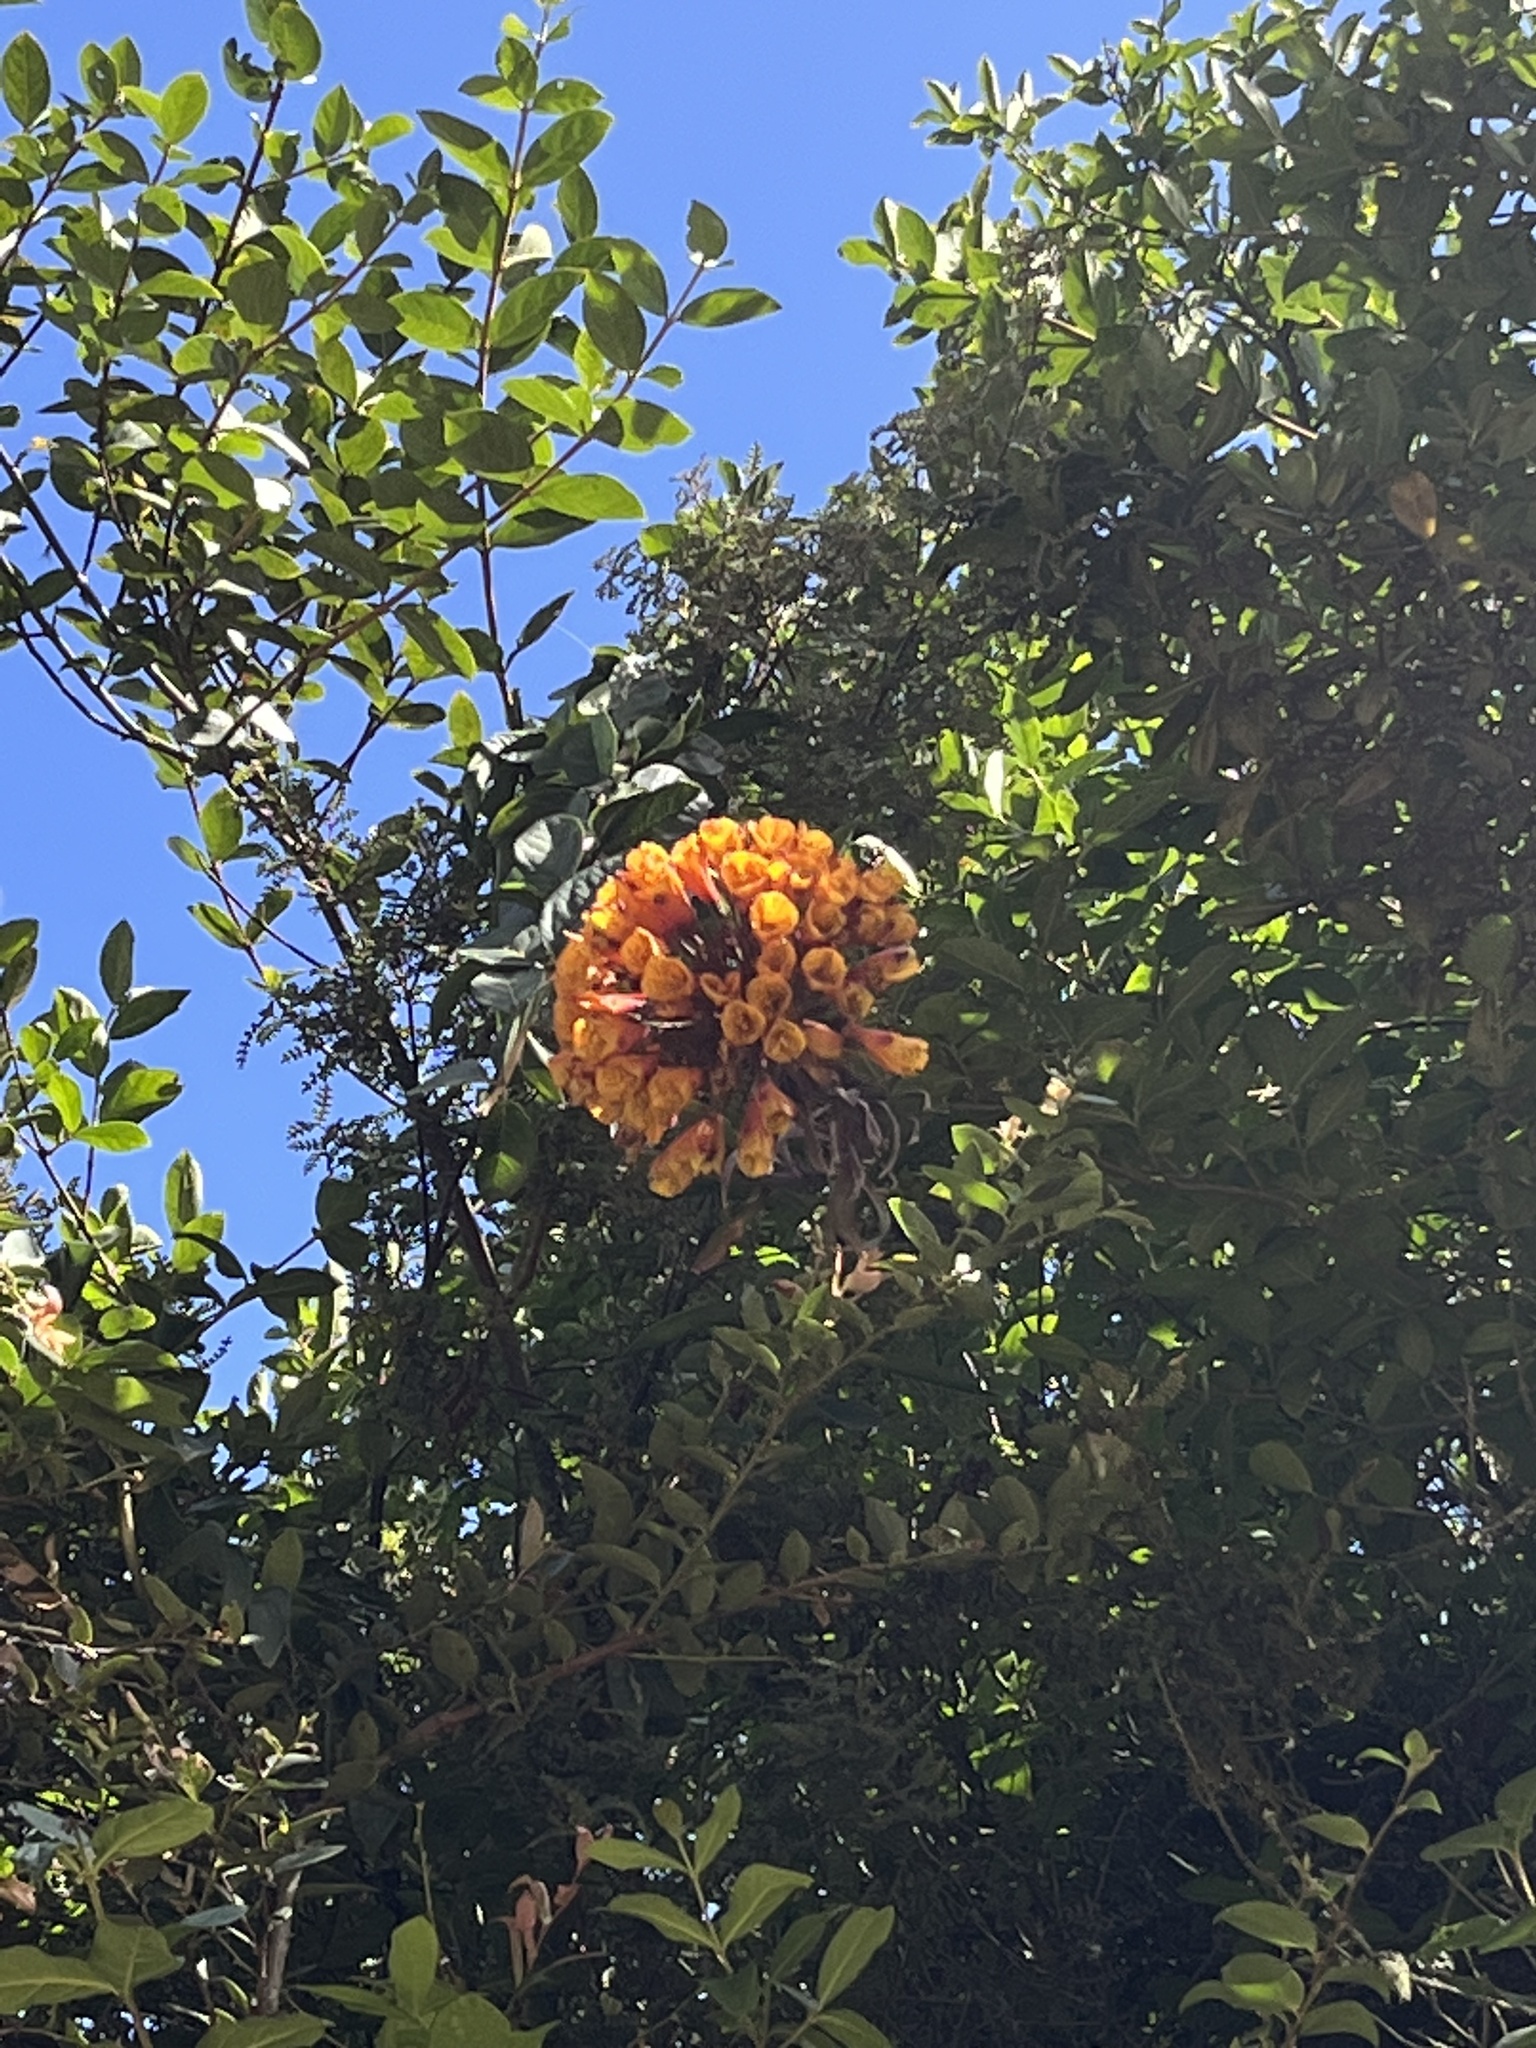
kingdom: Plantae
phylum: Tracheophyta
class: Liliopsida
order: Liliales
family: Alstroemeriaceae
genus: Bomarea
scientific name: Bomarea multiflora
